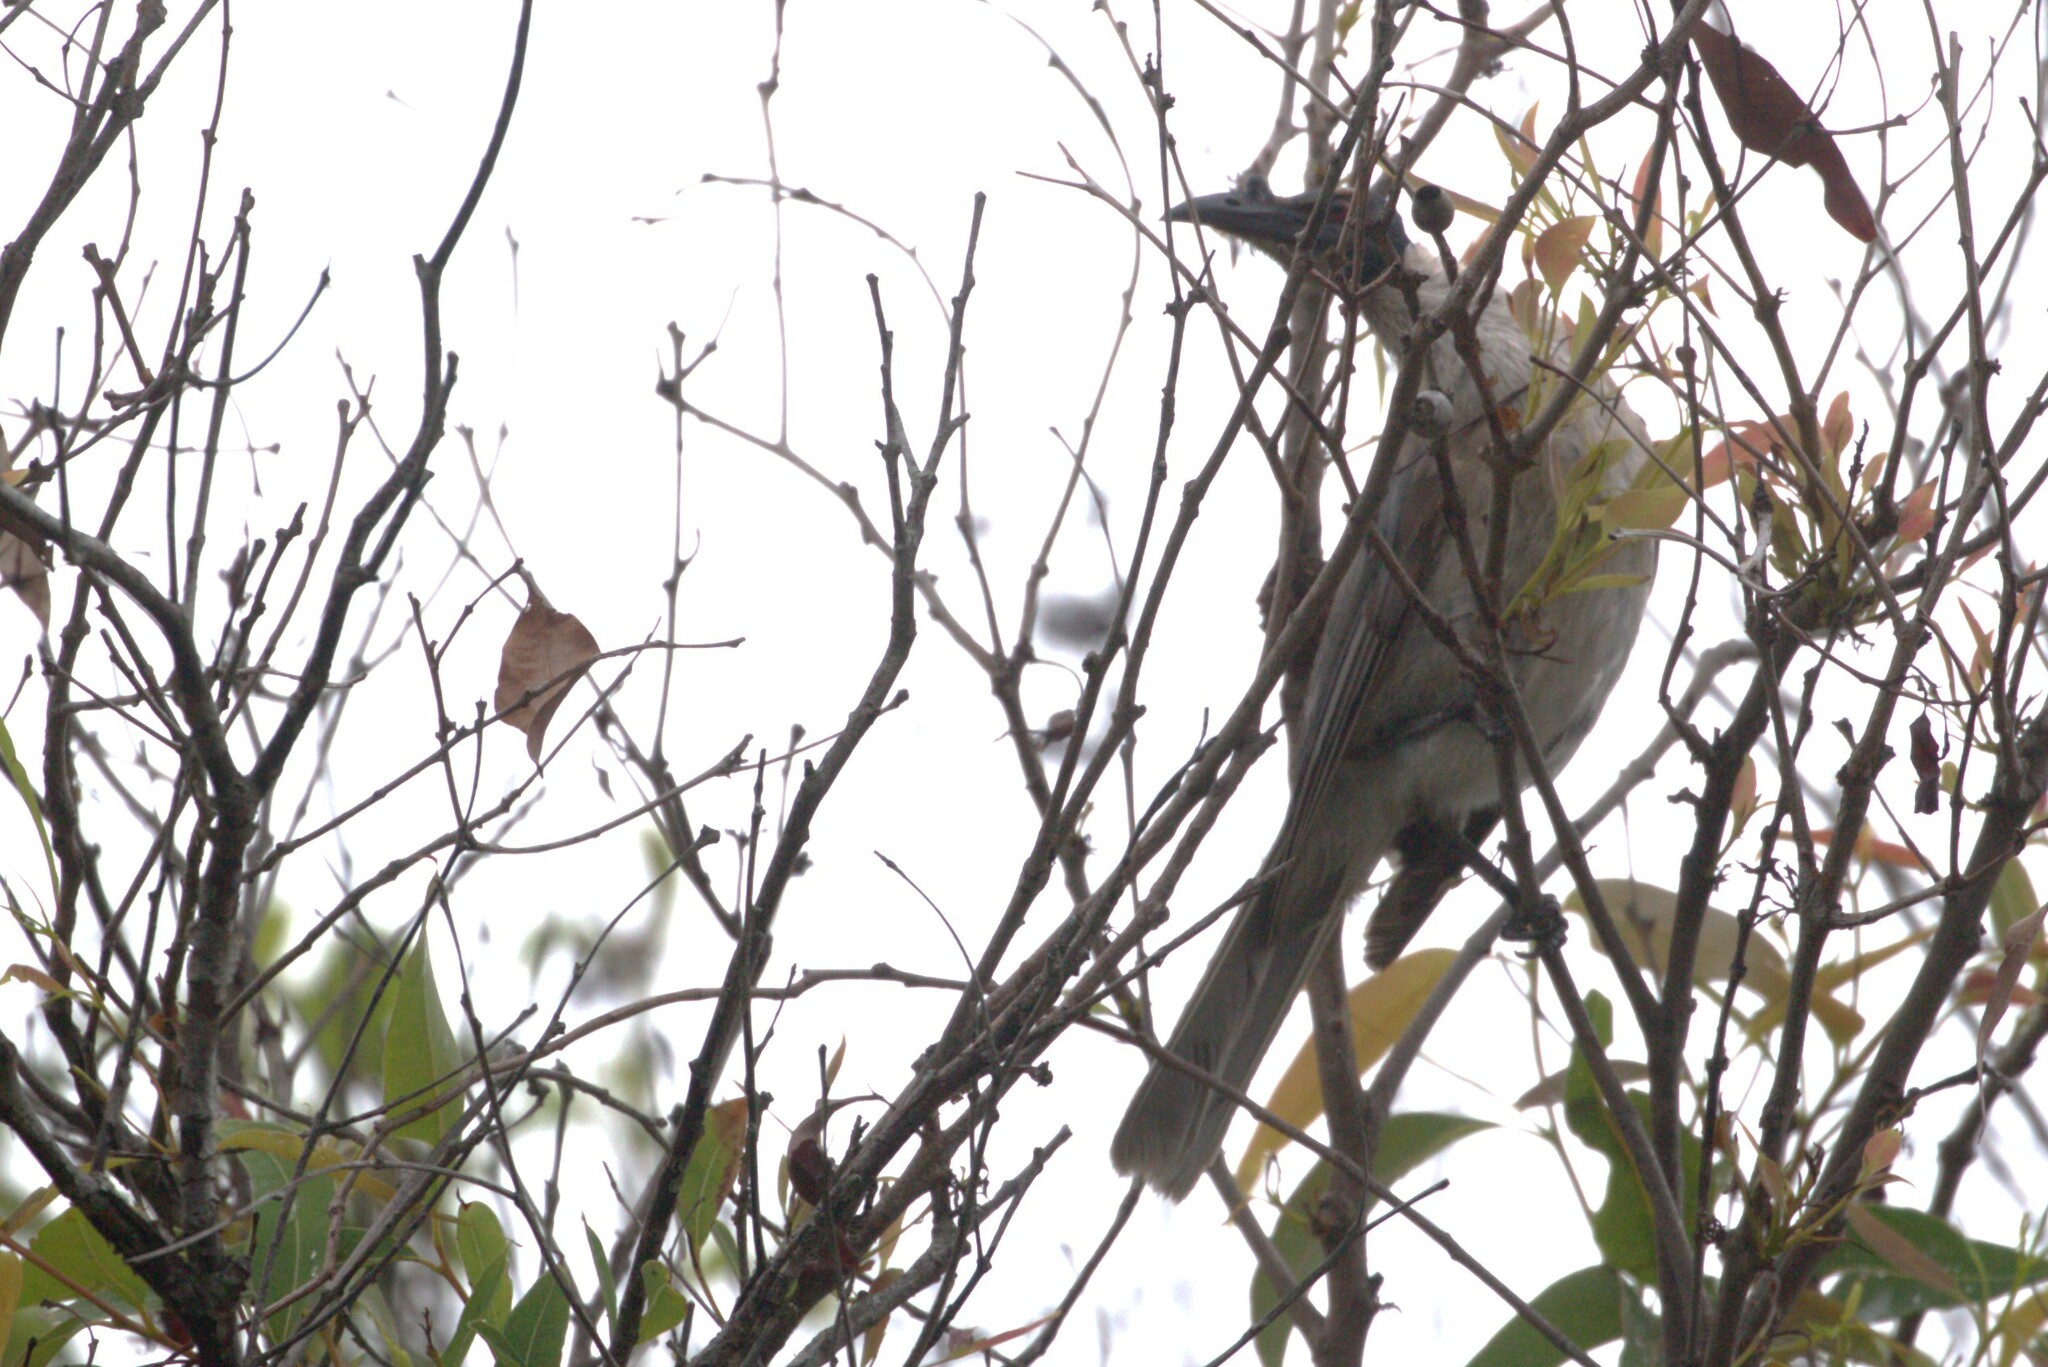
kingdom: Animalia
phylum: Chordata
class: Aves
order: Passeriformes
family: Meliphagidae
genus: Philemon
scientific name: Philemon corniculatus
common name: Noisy friarbird
